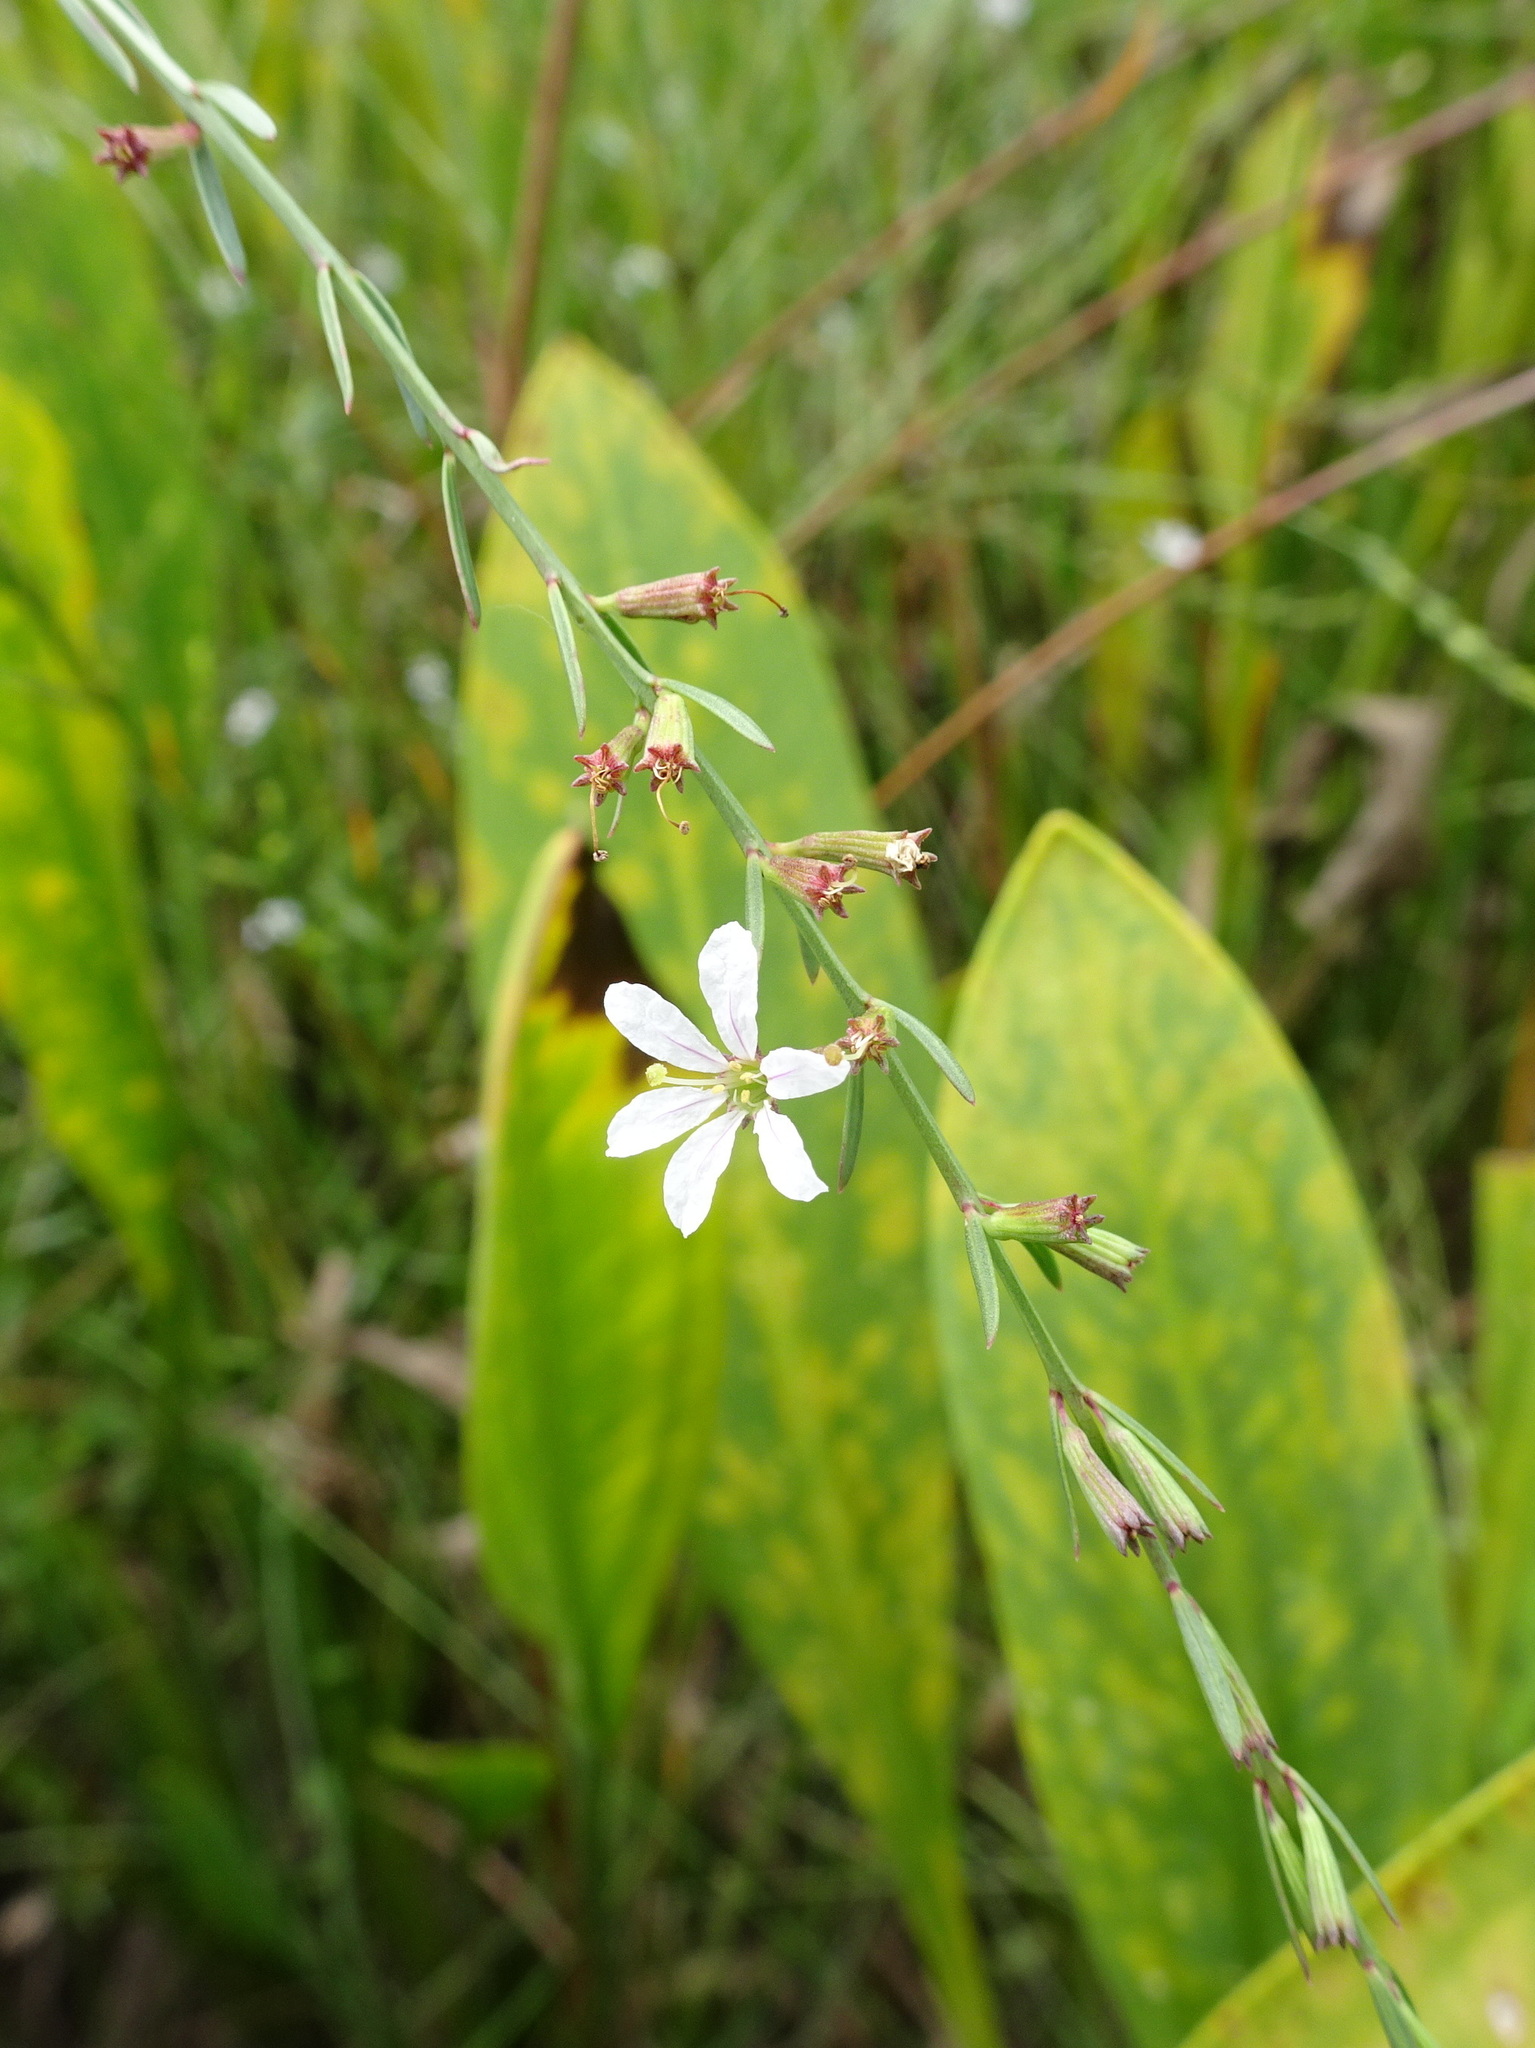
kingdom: Plantae
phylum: Tracheophyta
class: Magnoliopsida
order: Myrtales
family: Lythraceae
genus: Lythrum
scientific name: Lythrum alatum
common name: Winged loosestrife
